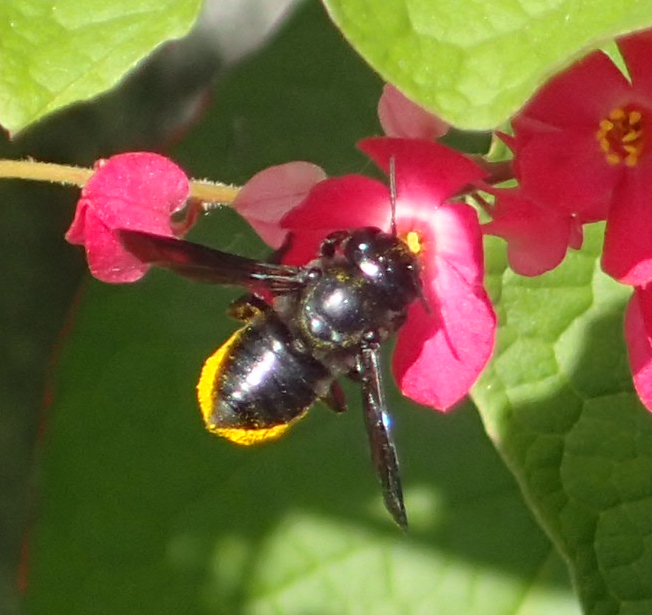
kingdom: Animalia
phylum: Arthropoda
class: Insecta
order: Hymenoptera
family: Megachilidae
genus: Megachile
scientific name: Megachile xylocopoides
